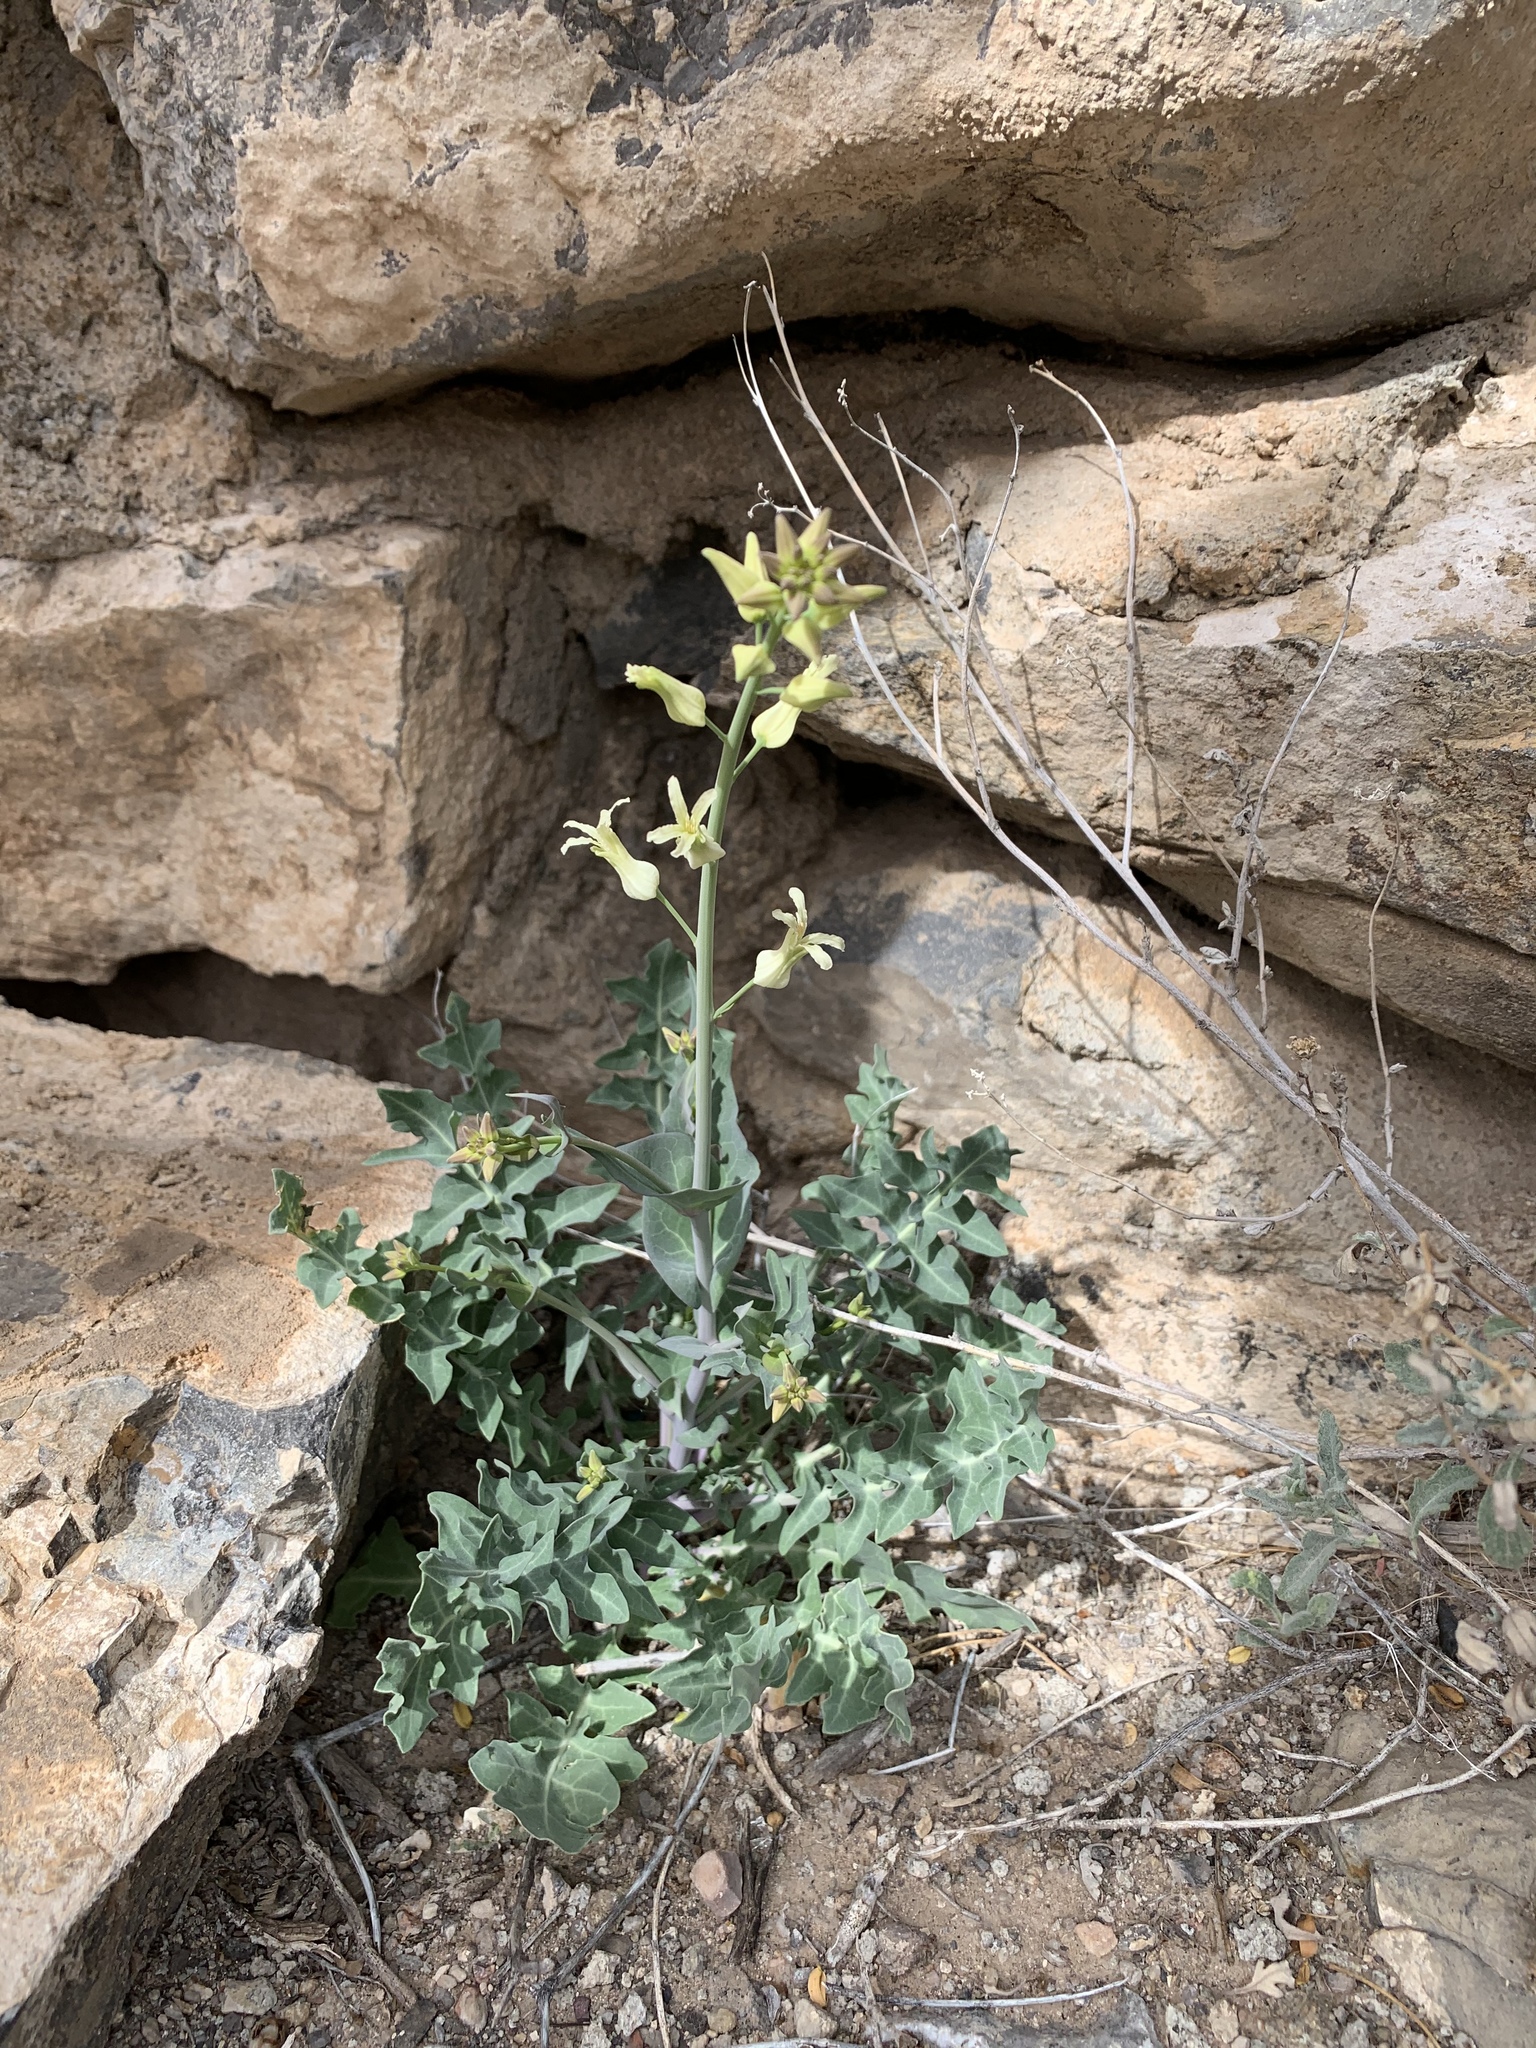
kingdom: Plantae
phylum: Tracheophyta
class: Magnoliopsida
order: Brassicales
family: Brassicaceae
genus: Streptanthus
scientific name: Streptanthus carinatus
